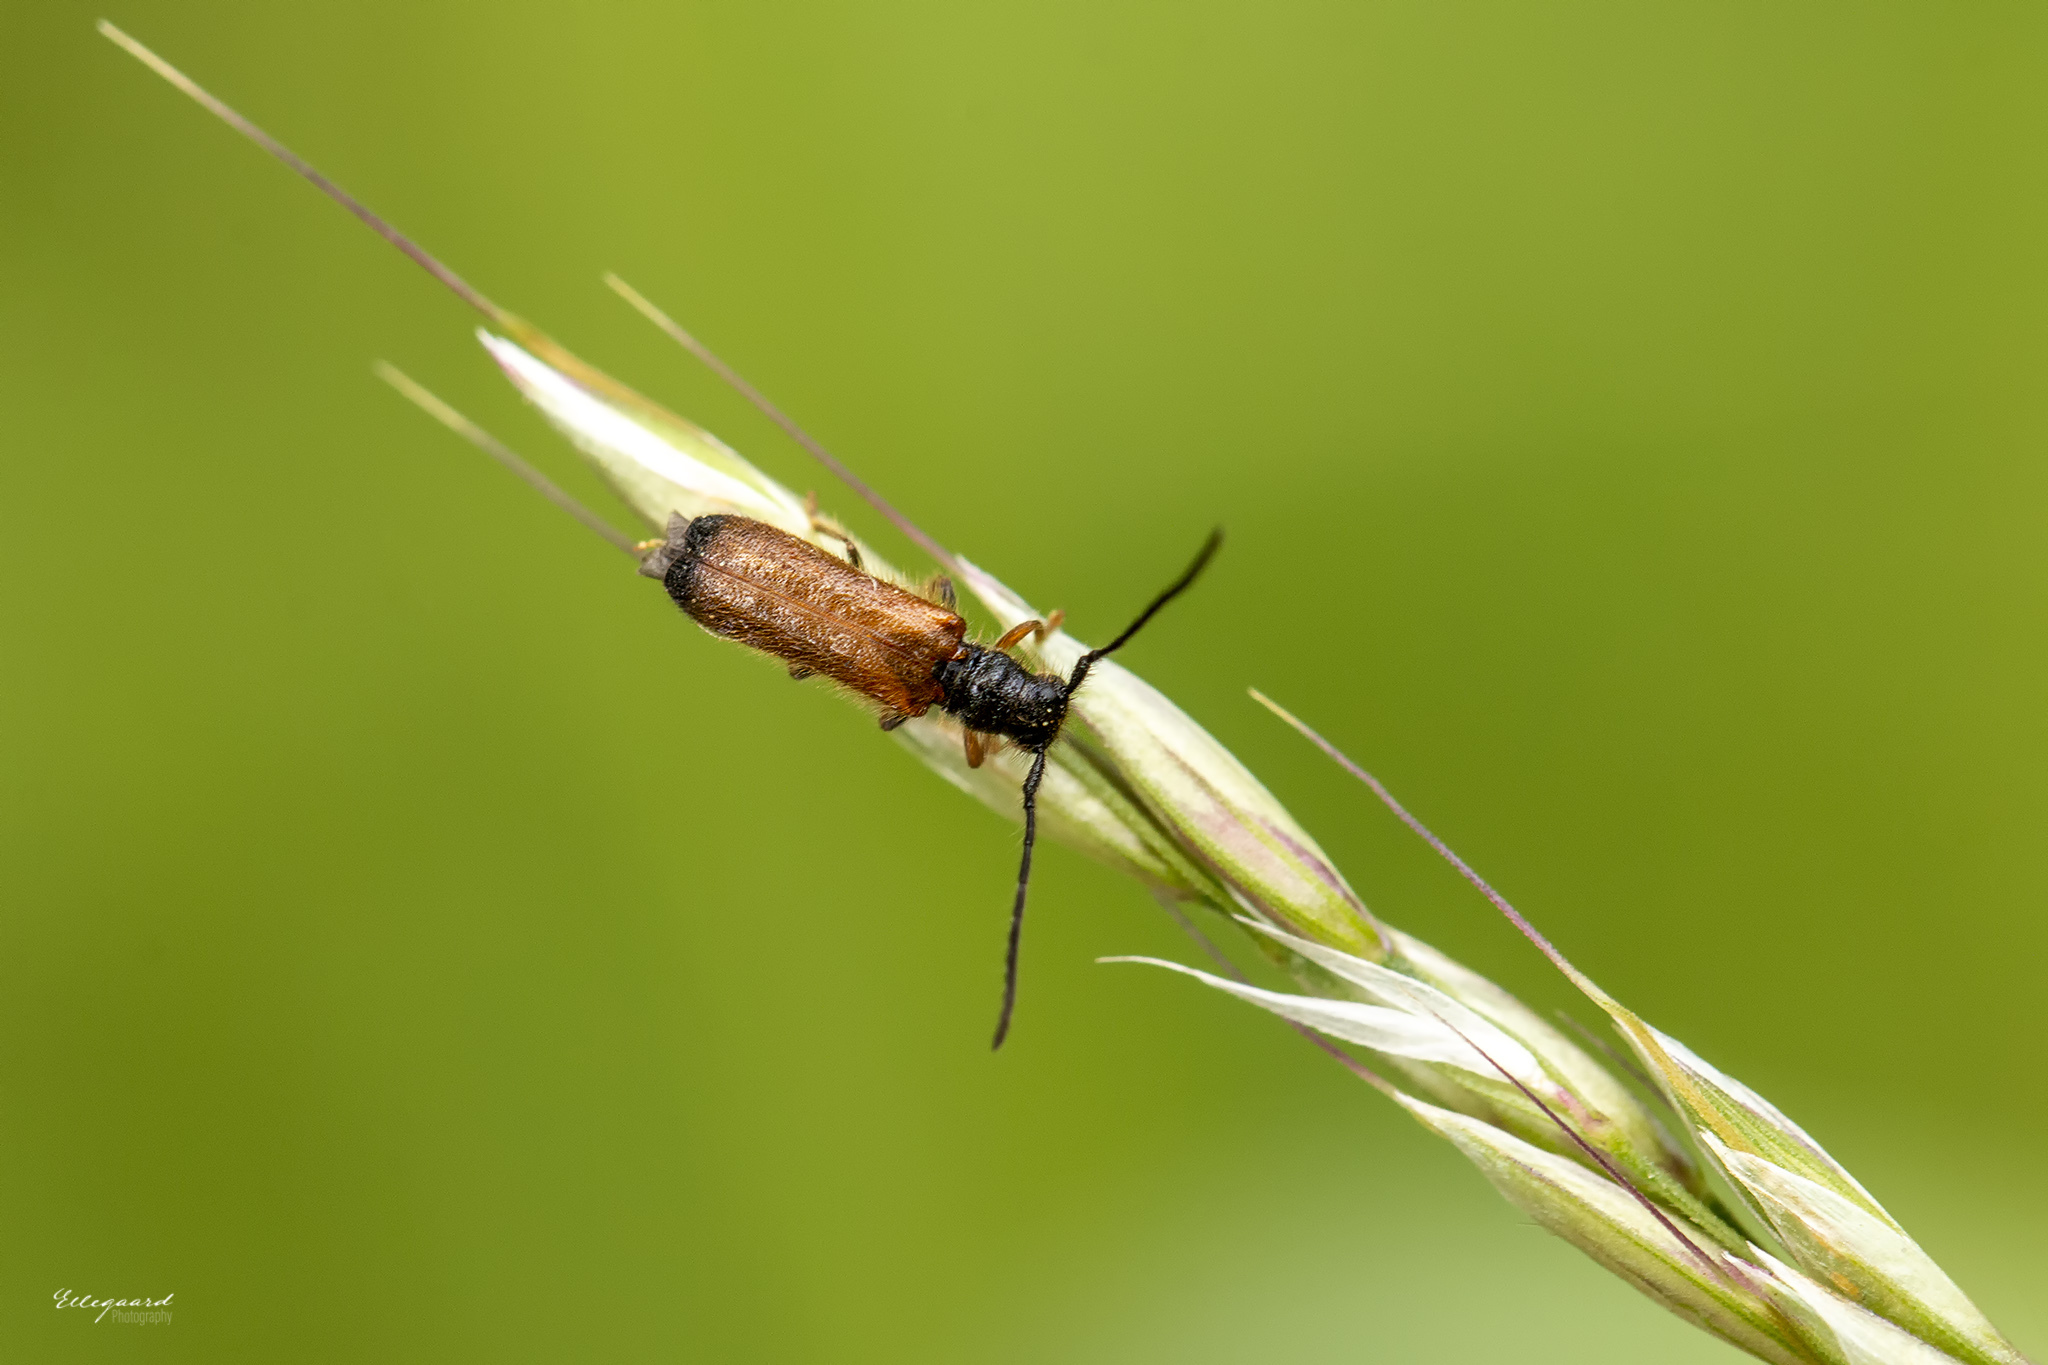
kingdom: Animalia
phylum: Arthropoda
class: Insecta
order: Coleoptera
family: Cerambycidae
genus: Tetrops
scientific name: Tetrops praeustus
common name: Plum beetle
